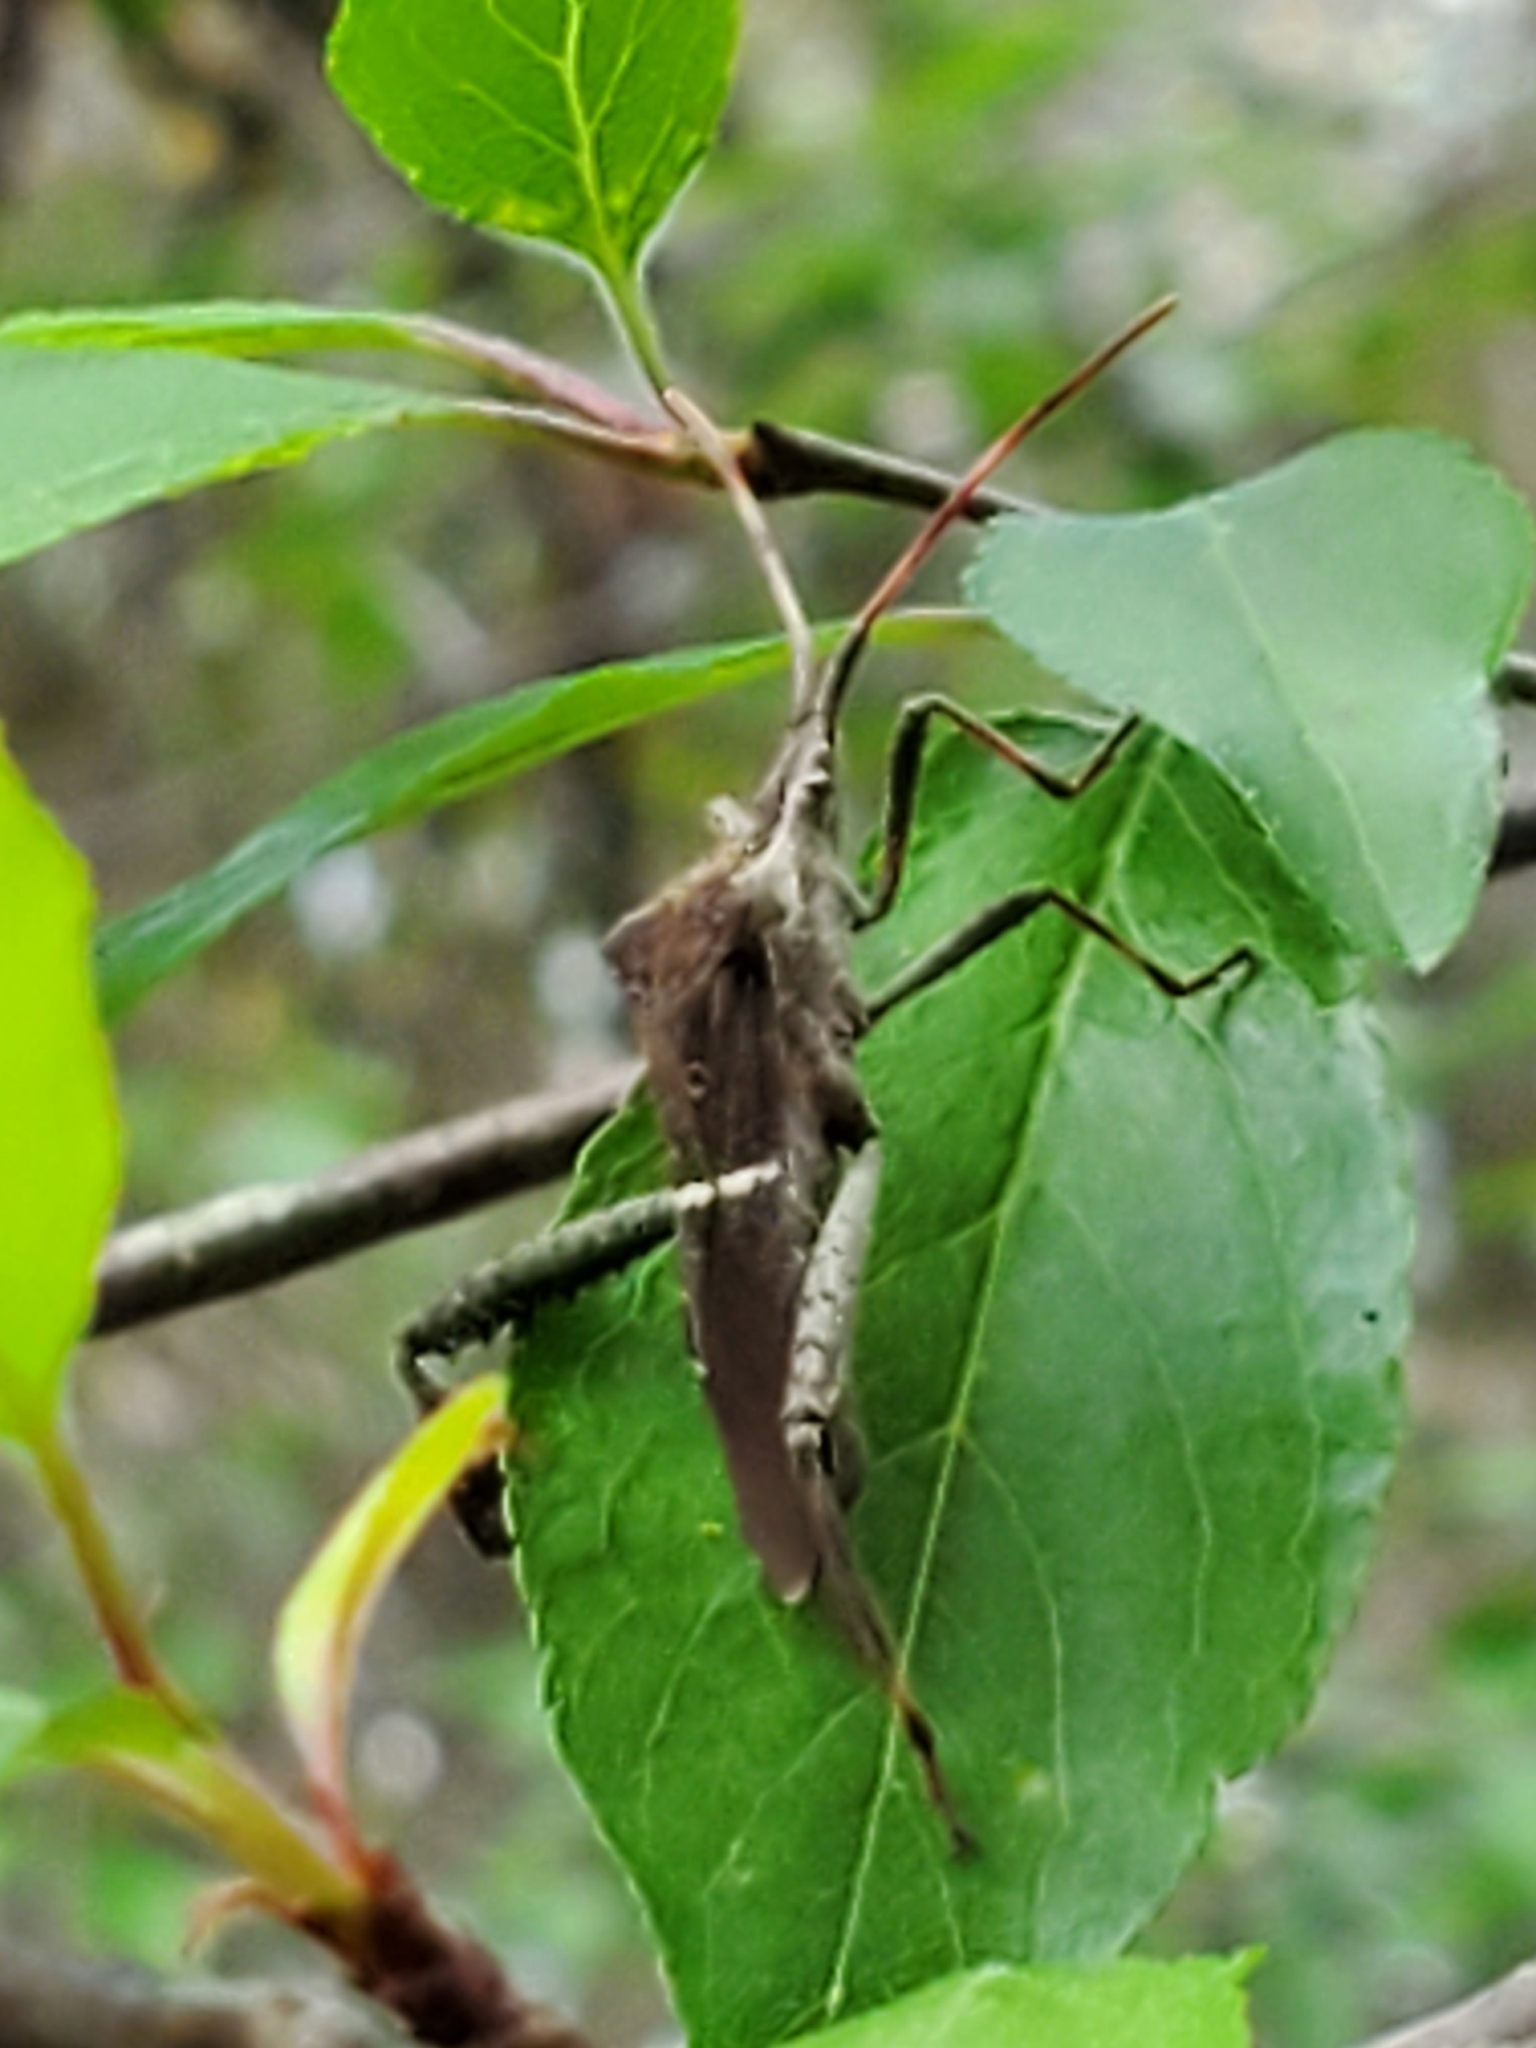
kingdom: Animalia
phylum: Arthropoda
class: Insecta
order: Hemiptera
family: Coreidae
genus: Leptoglossus
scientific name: Leptoglossus phyllopus
